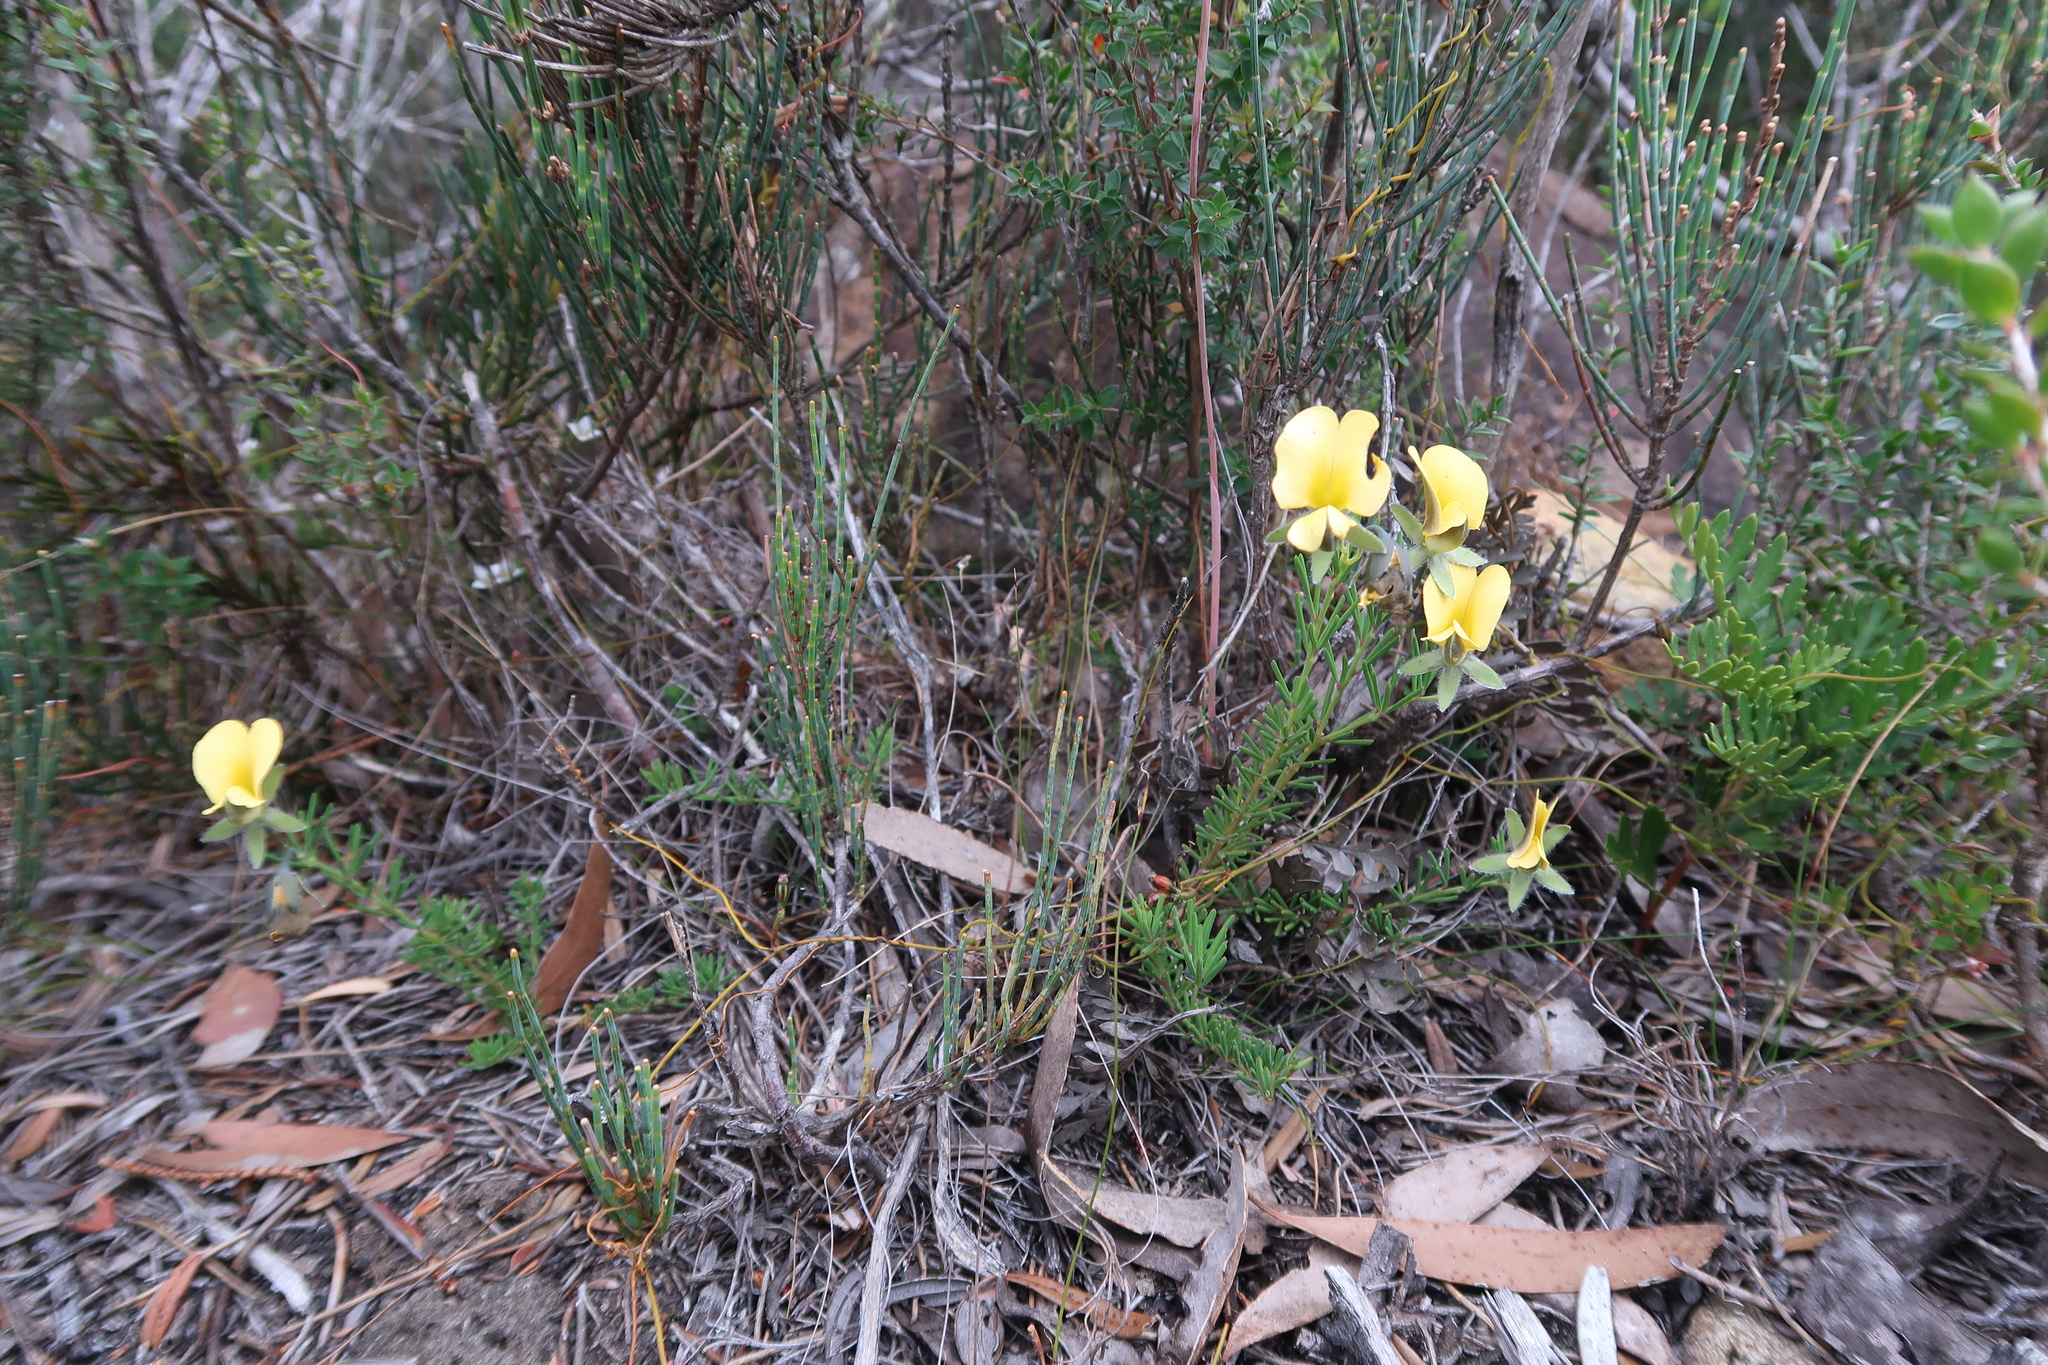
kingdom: Plantae
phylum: Tracheophyta
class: Magnoliopsida
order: Fabales
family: Fabaceae
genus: Gompholobium
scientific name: Gompholobium huegelii
